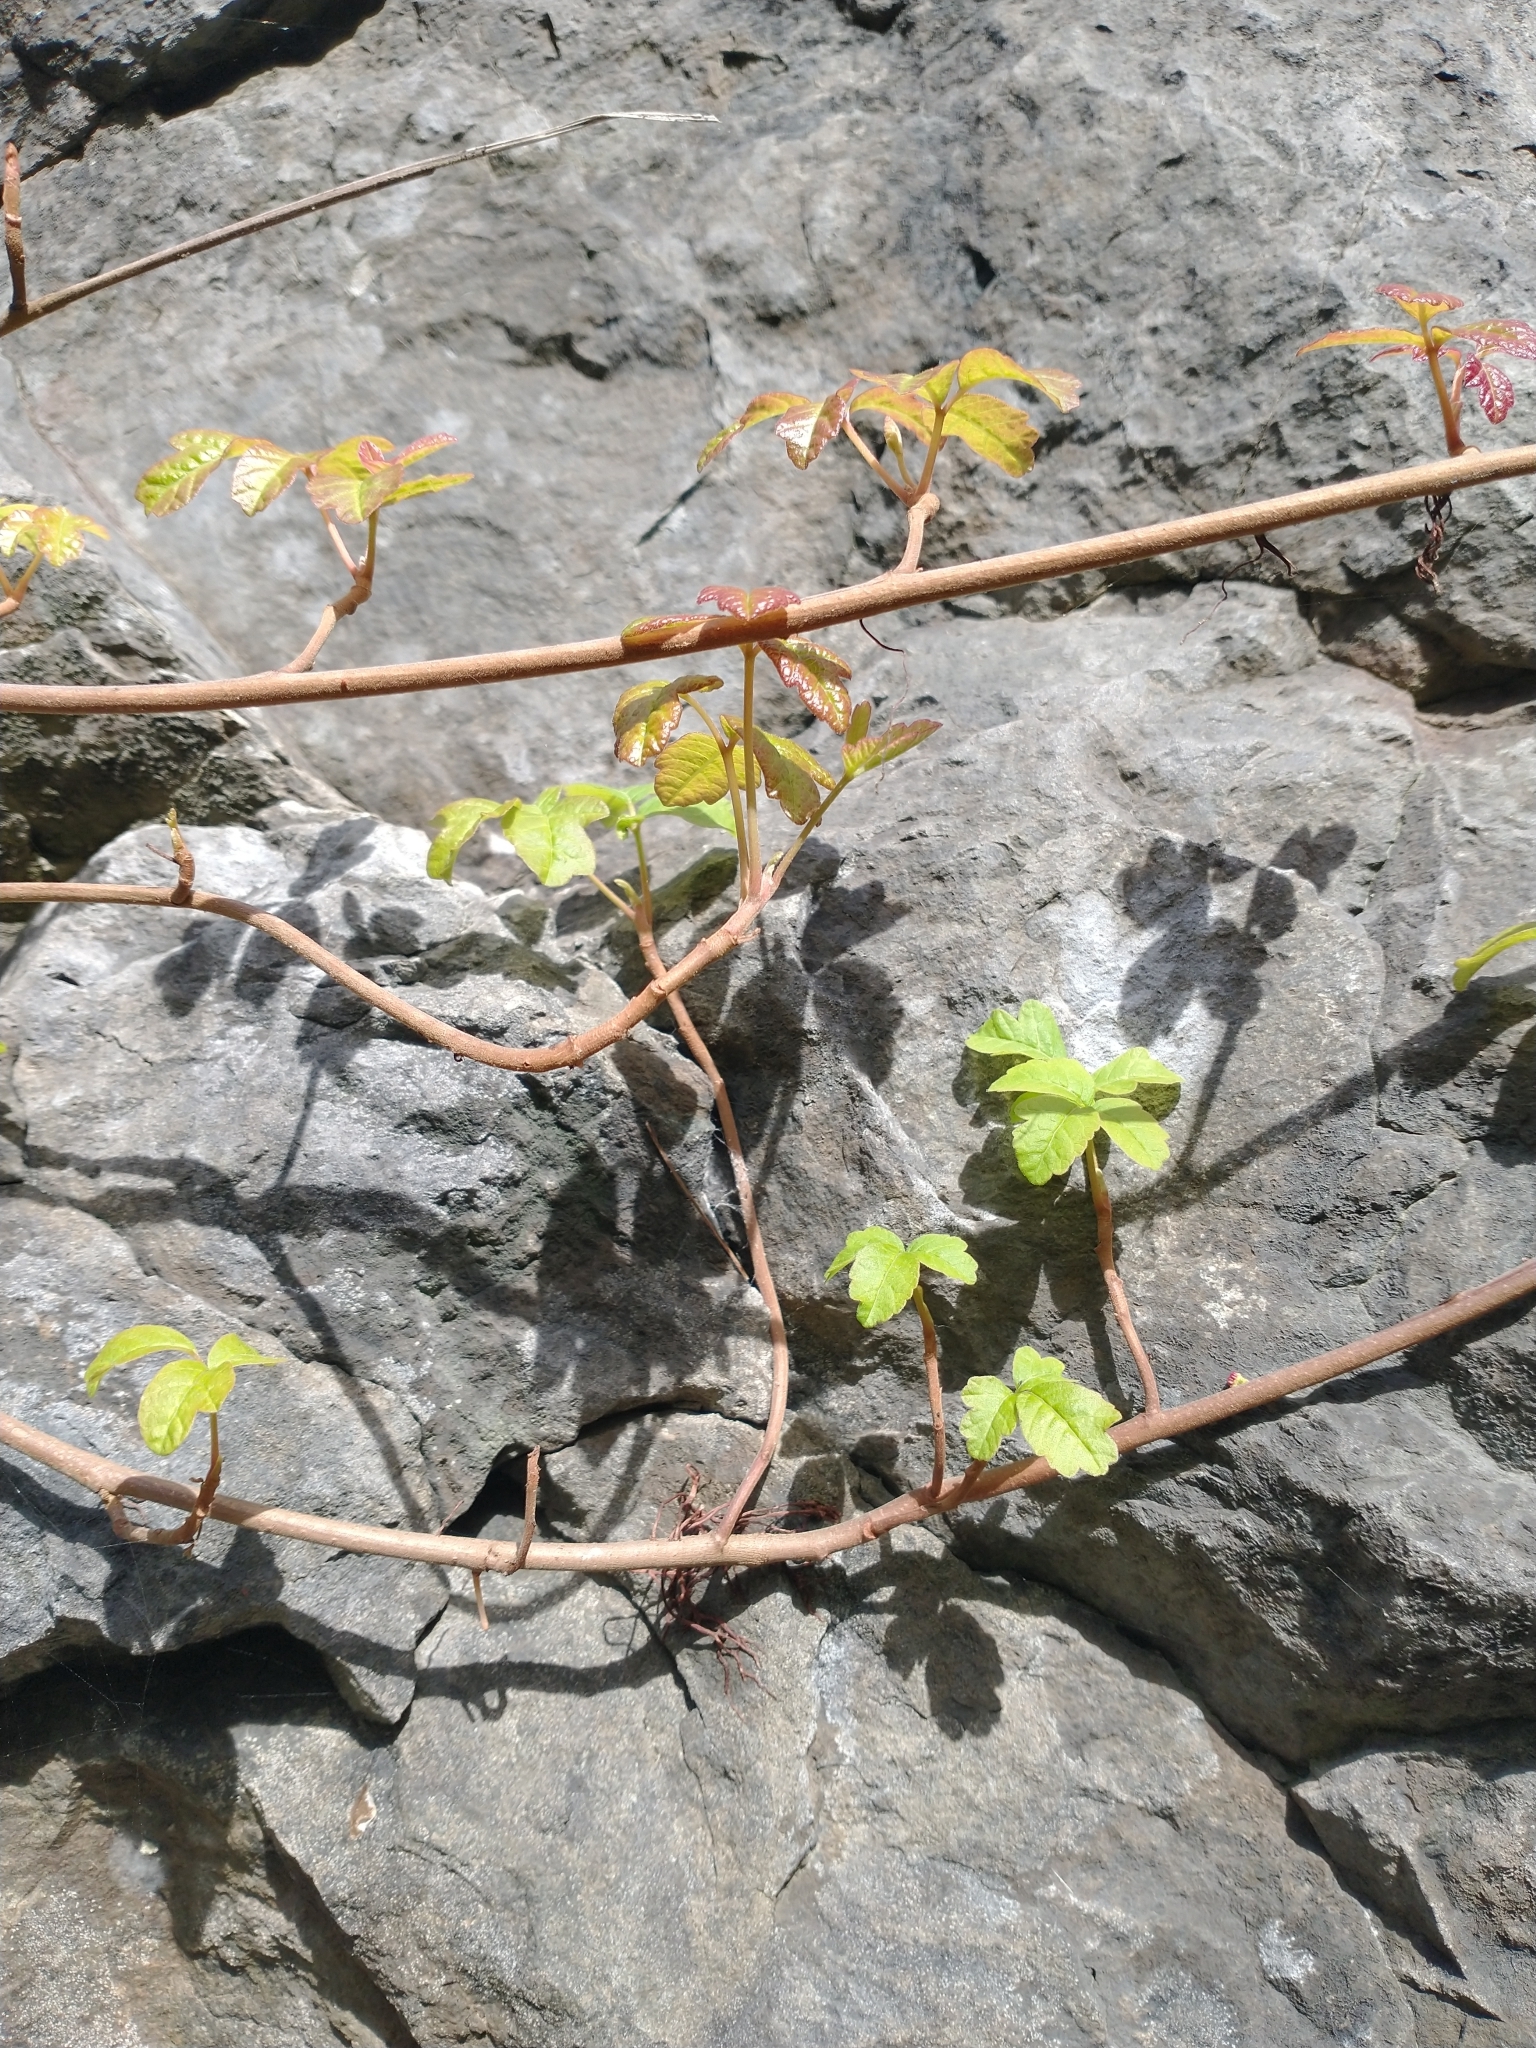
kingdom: Plantae
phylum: Tracheophyta
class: Magnoliopsida
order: Sapindales
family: Anacardiaceae
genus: Toxicodendron
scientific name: Toxicodendron diversilobum
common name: Pacific poison-oak
